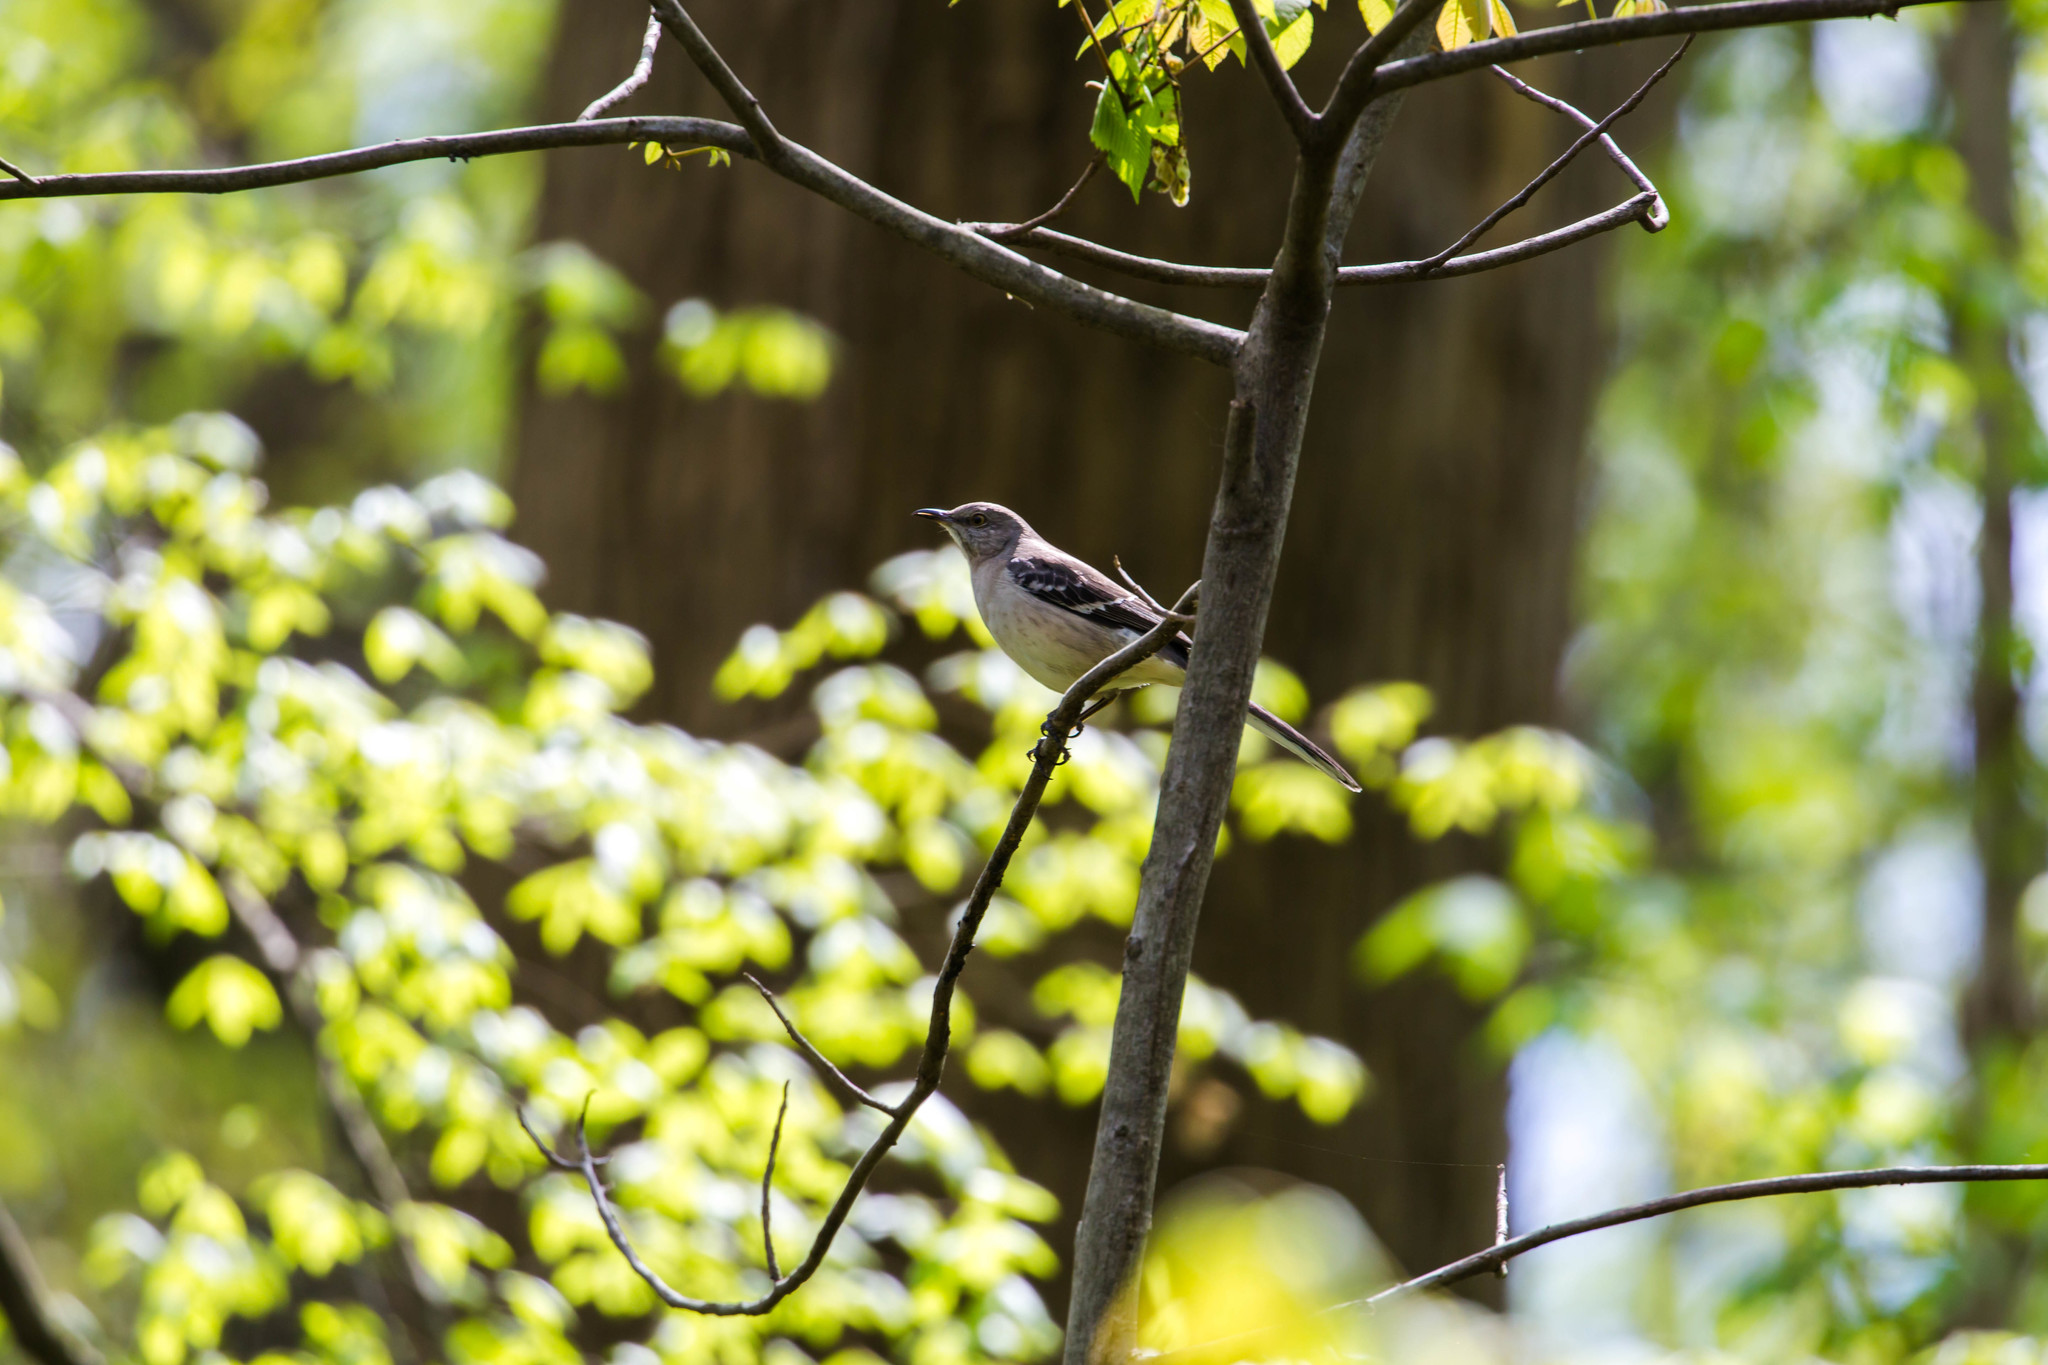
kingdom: Animalia
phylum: Chordata
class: Aves
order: Passeriformes
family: Mimidae
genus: Mimus
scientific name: Mimus polyglottos
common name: Northern mockingbird
